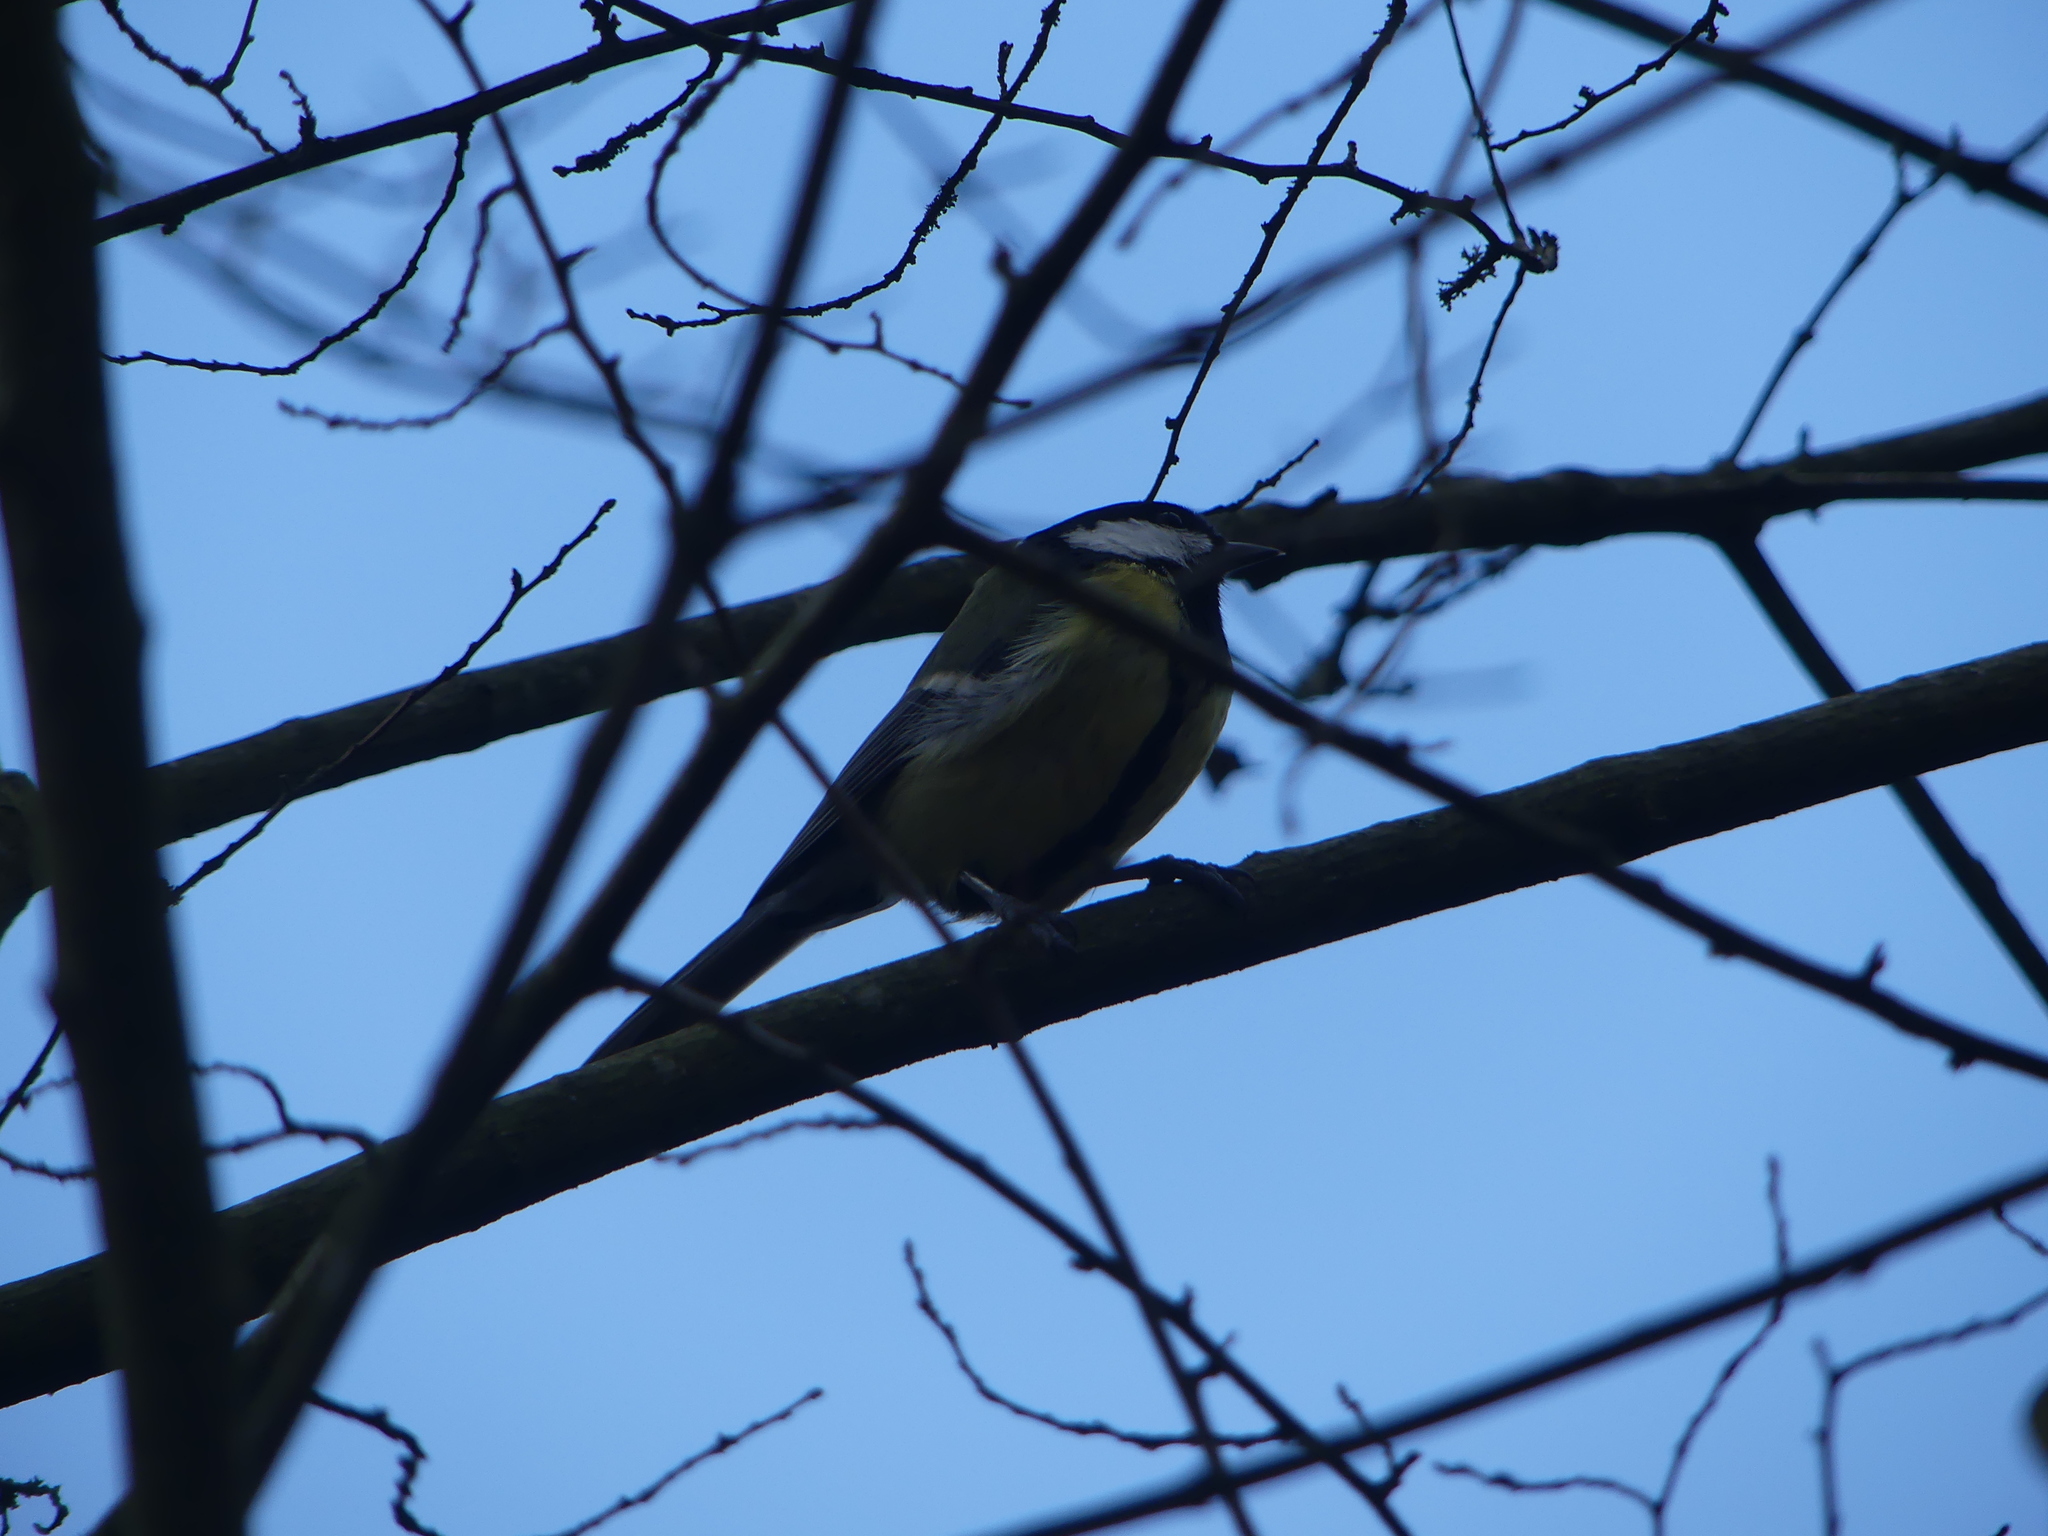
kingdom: Animalia
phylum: Chordata
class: Aves
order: Passeriformes
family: Paridae
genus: Parus
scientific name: Parus major
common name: Great tit
